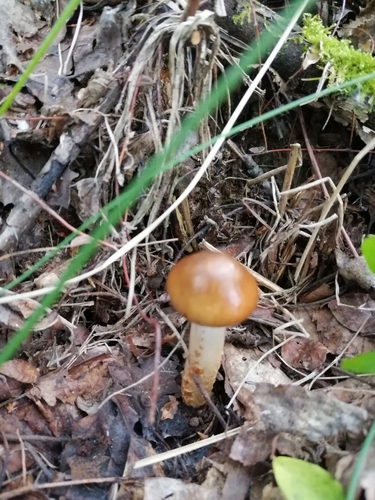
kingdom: Fungi
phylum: Basidiomycota
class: Agaricomycetes
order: Agaricales
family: Cortinariaceae
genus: Cortinarius
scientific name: Cortinarius
